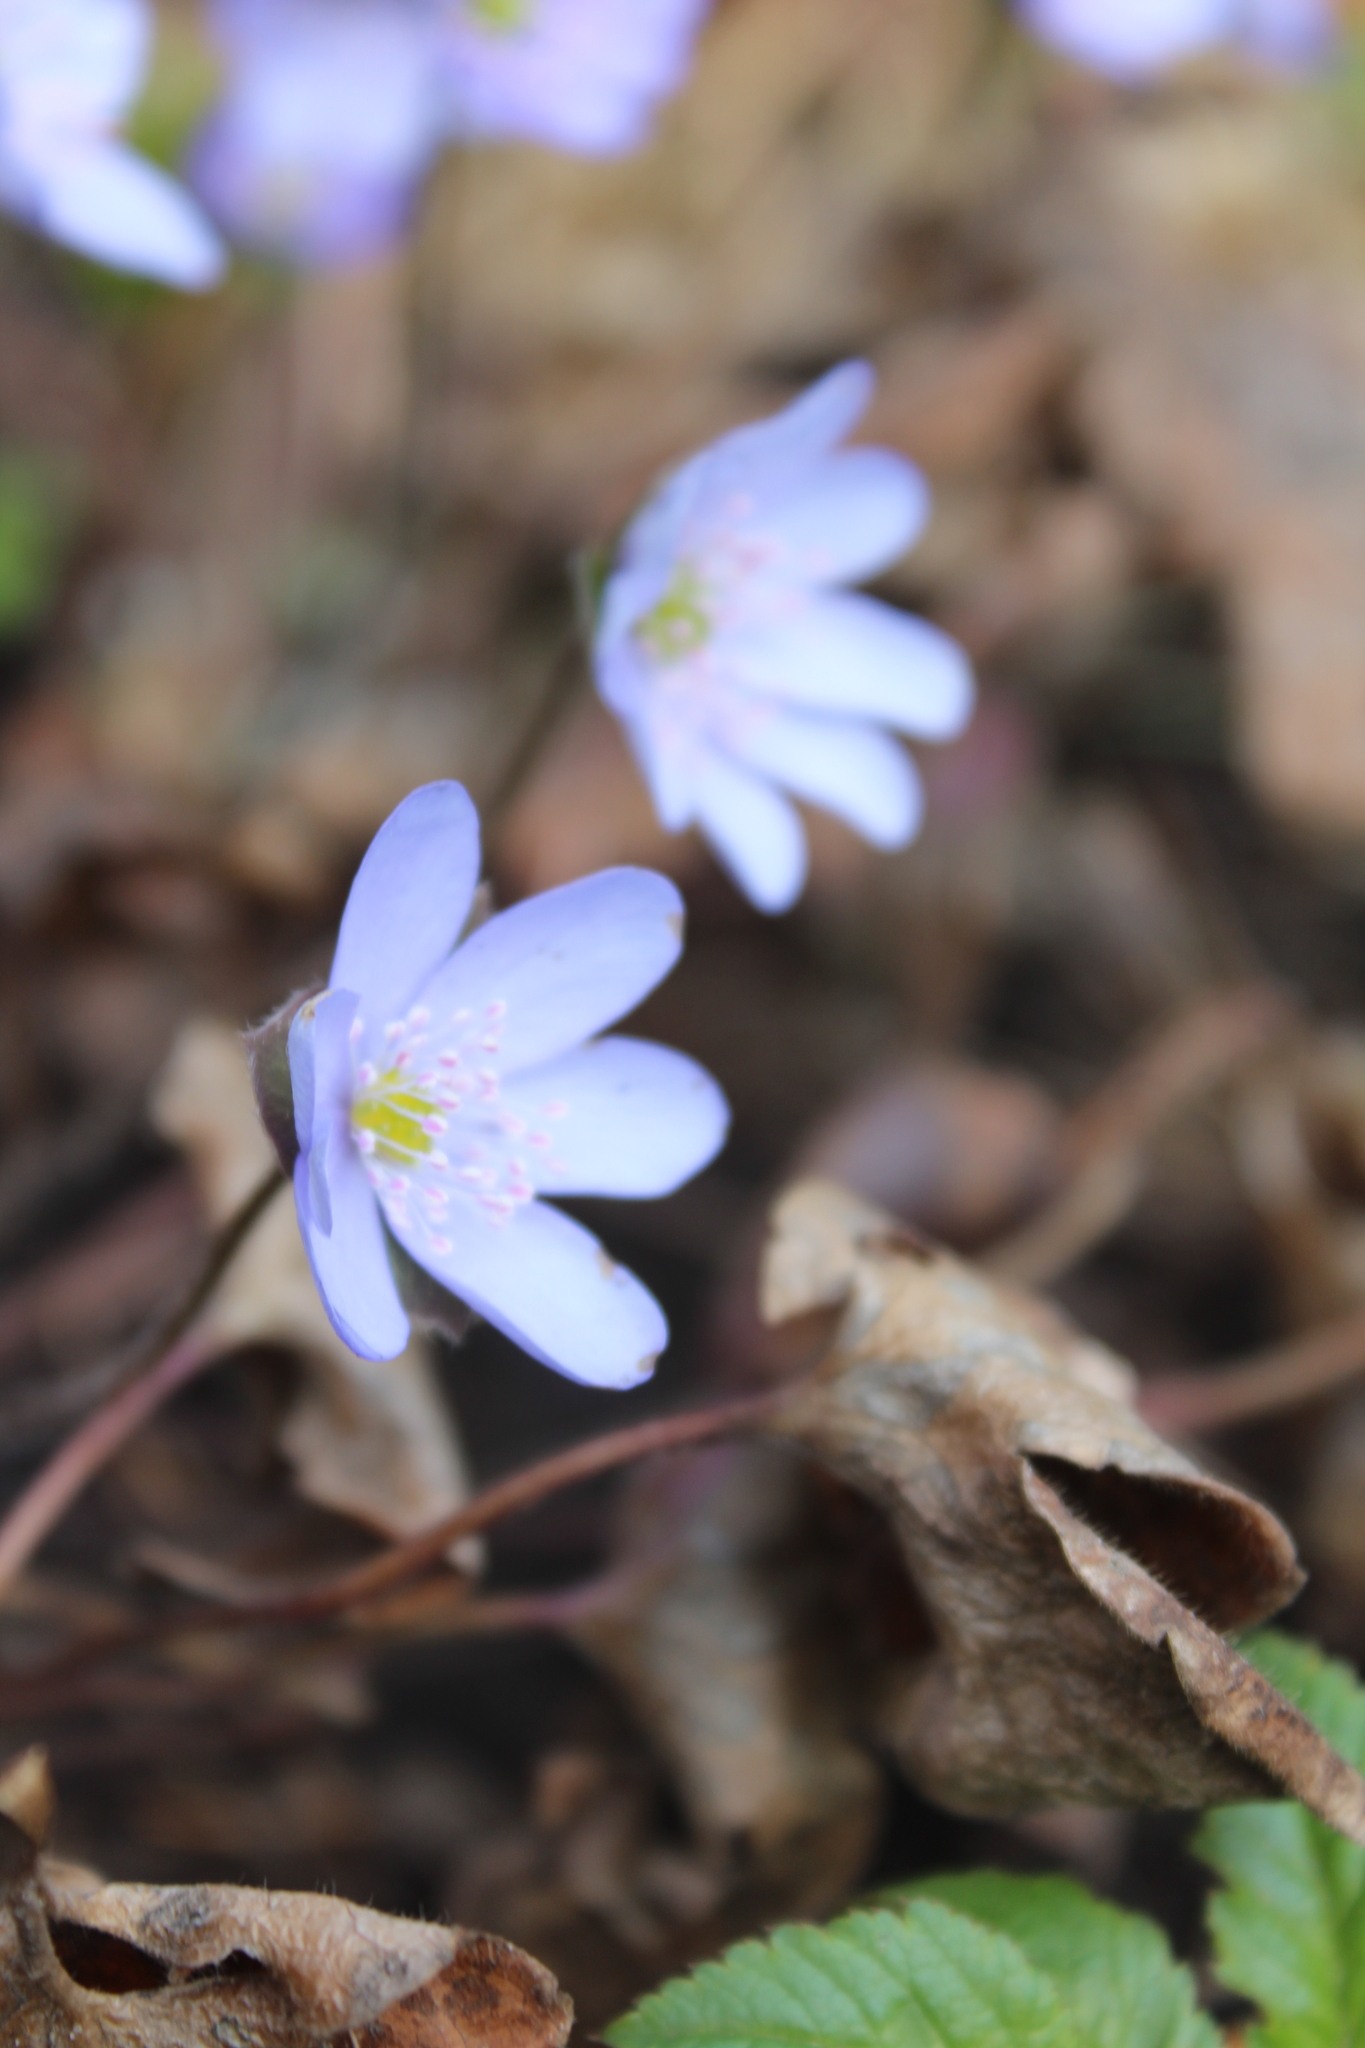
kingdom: Plantae
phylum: Tracheophyta
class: Magnoliopsida
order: Ranunculales
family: Ranunculaceae
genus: Hepatica
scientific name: Hepatica nobilis
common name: Liverleaf
